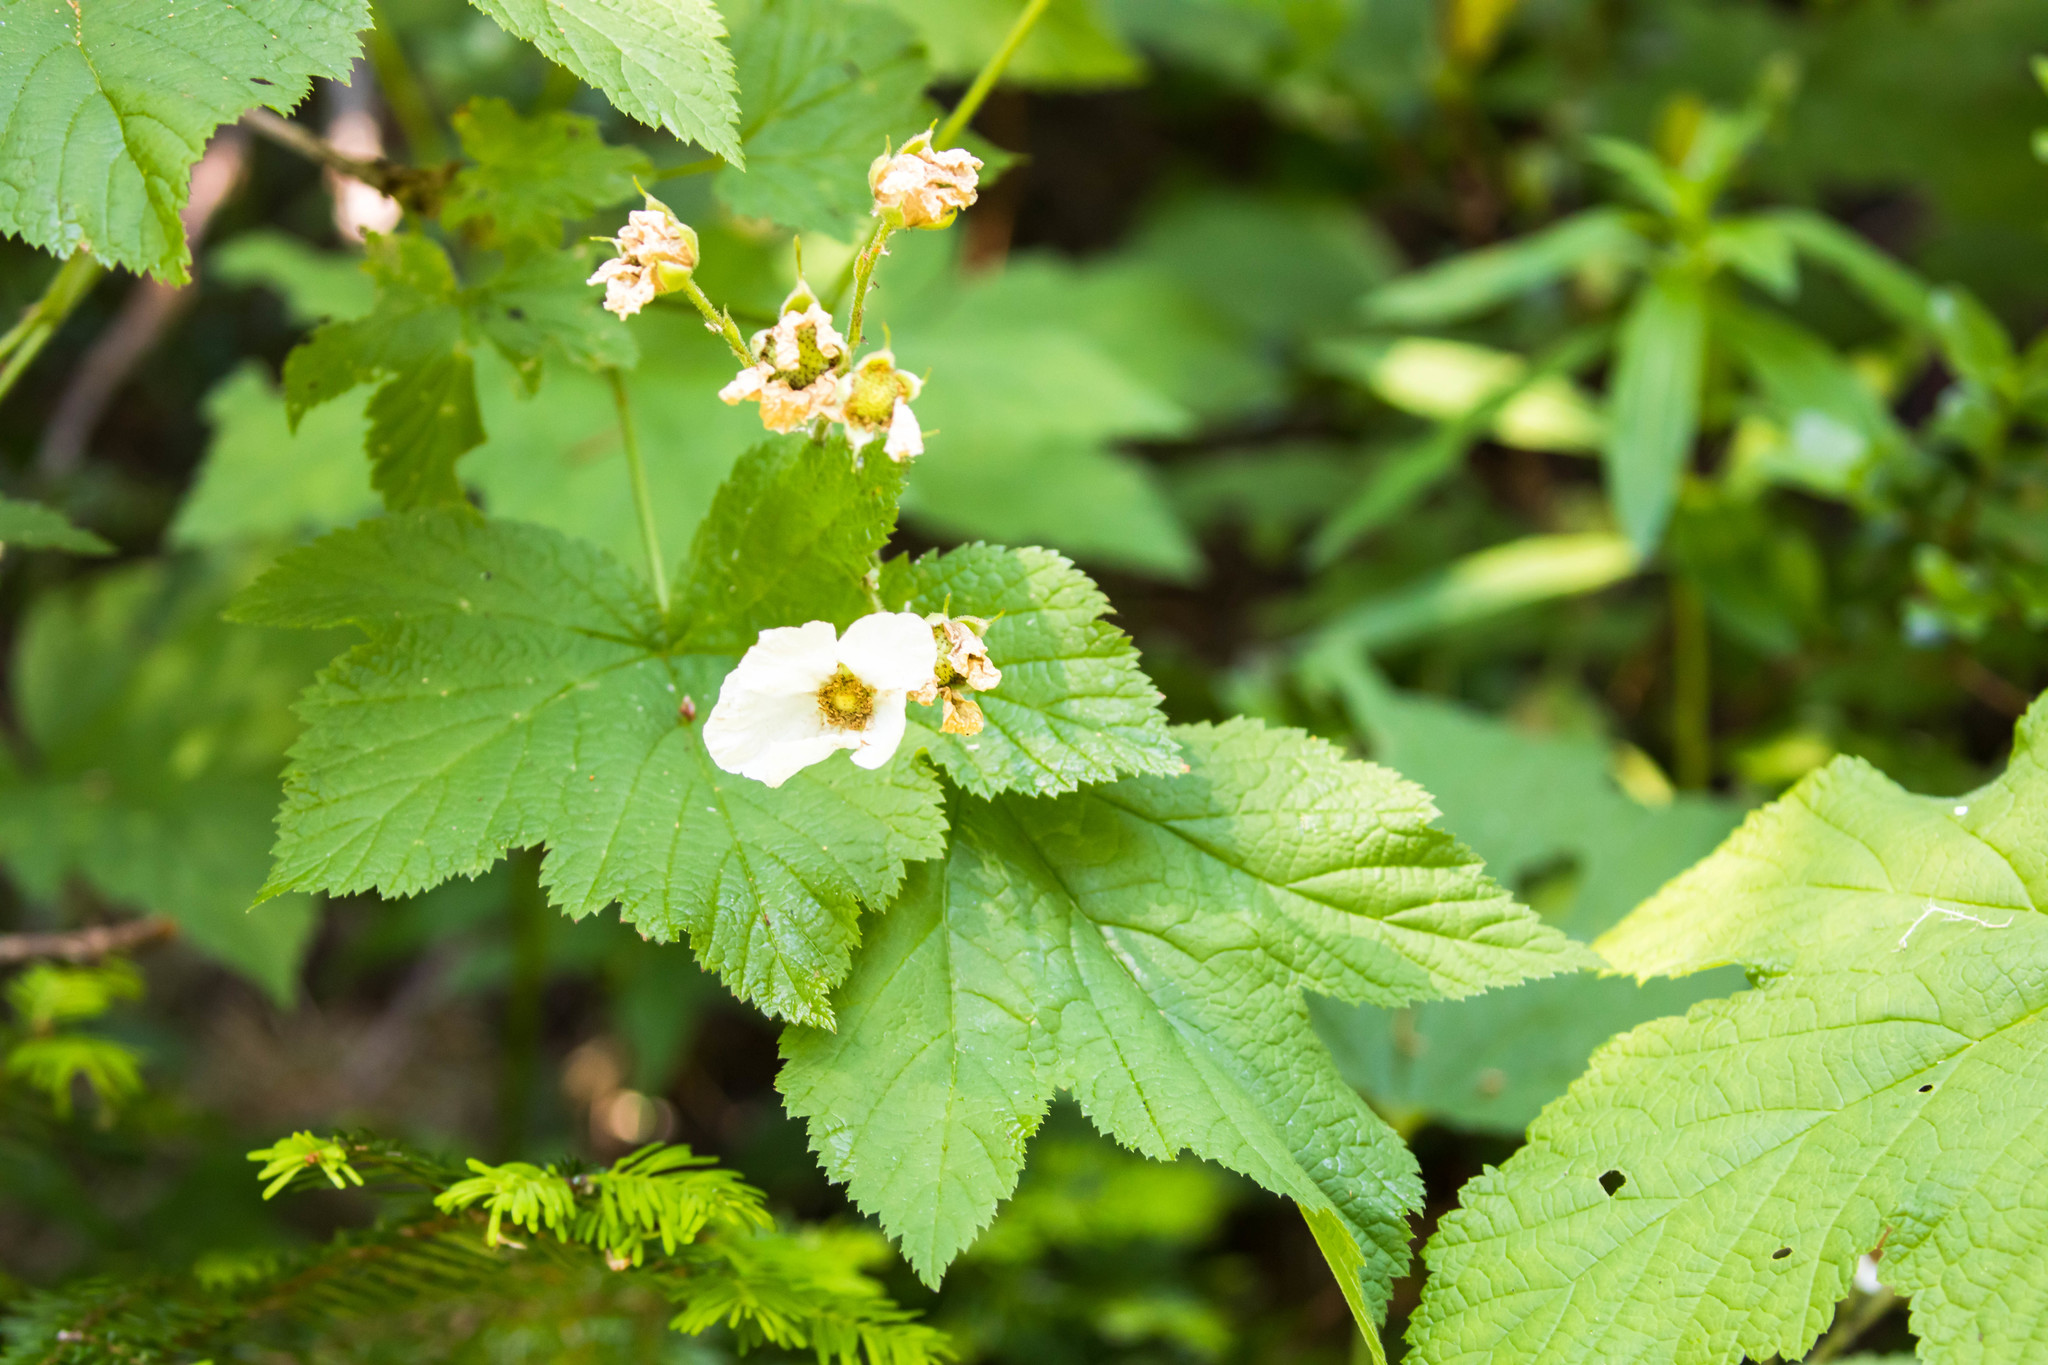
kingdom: Plantae
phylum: Tracheophyta
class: Magnoliopsida
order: Rosales
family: Rosaceae
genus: Rubus
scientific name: Rubus parviflorus
